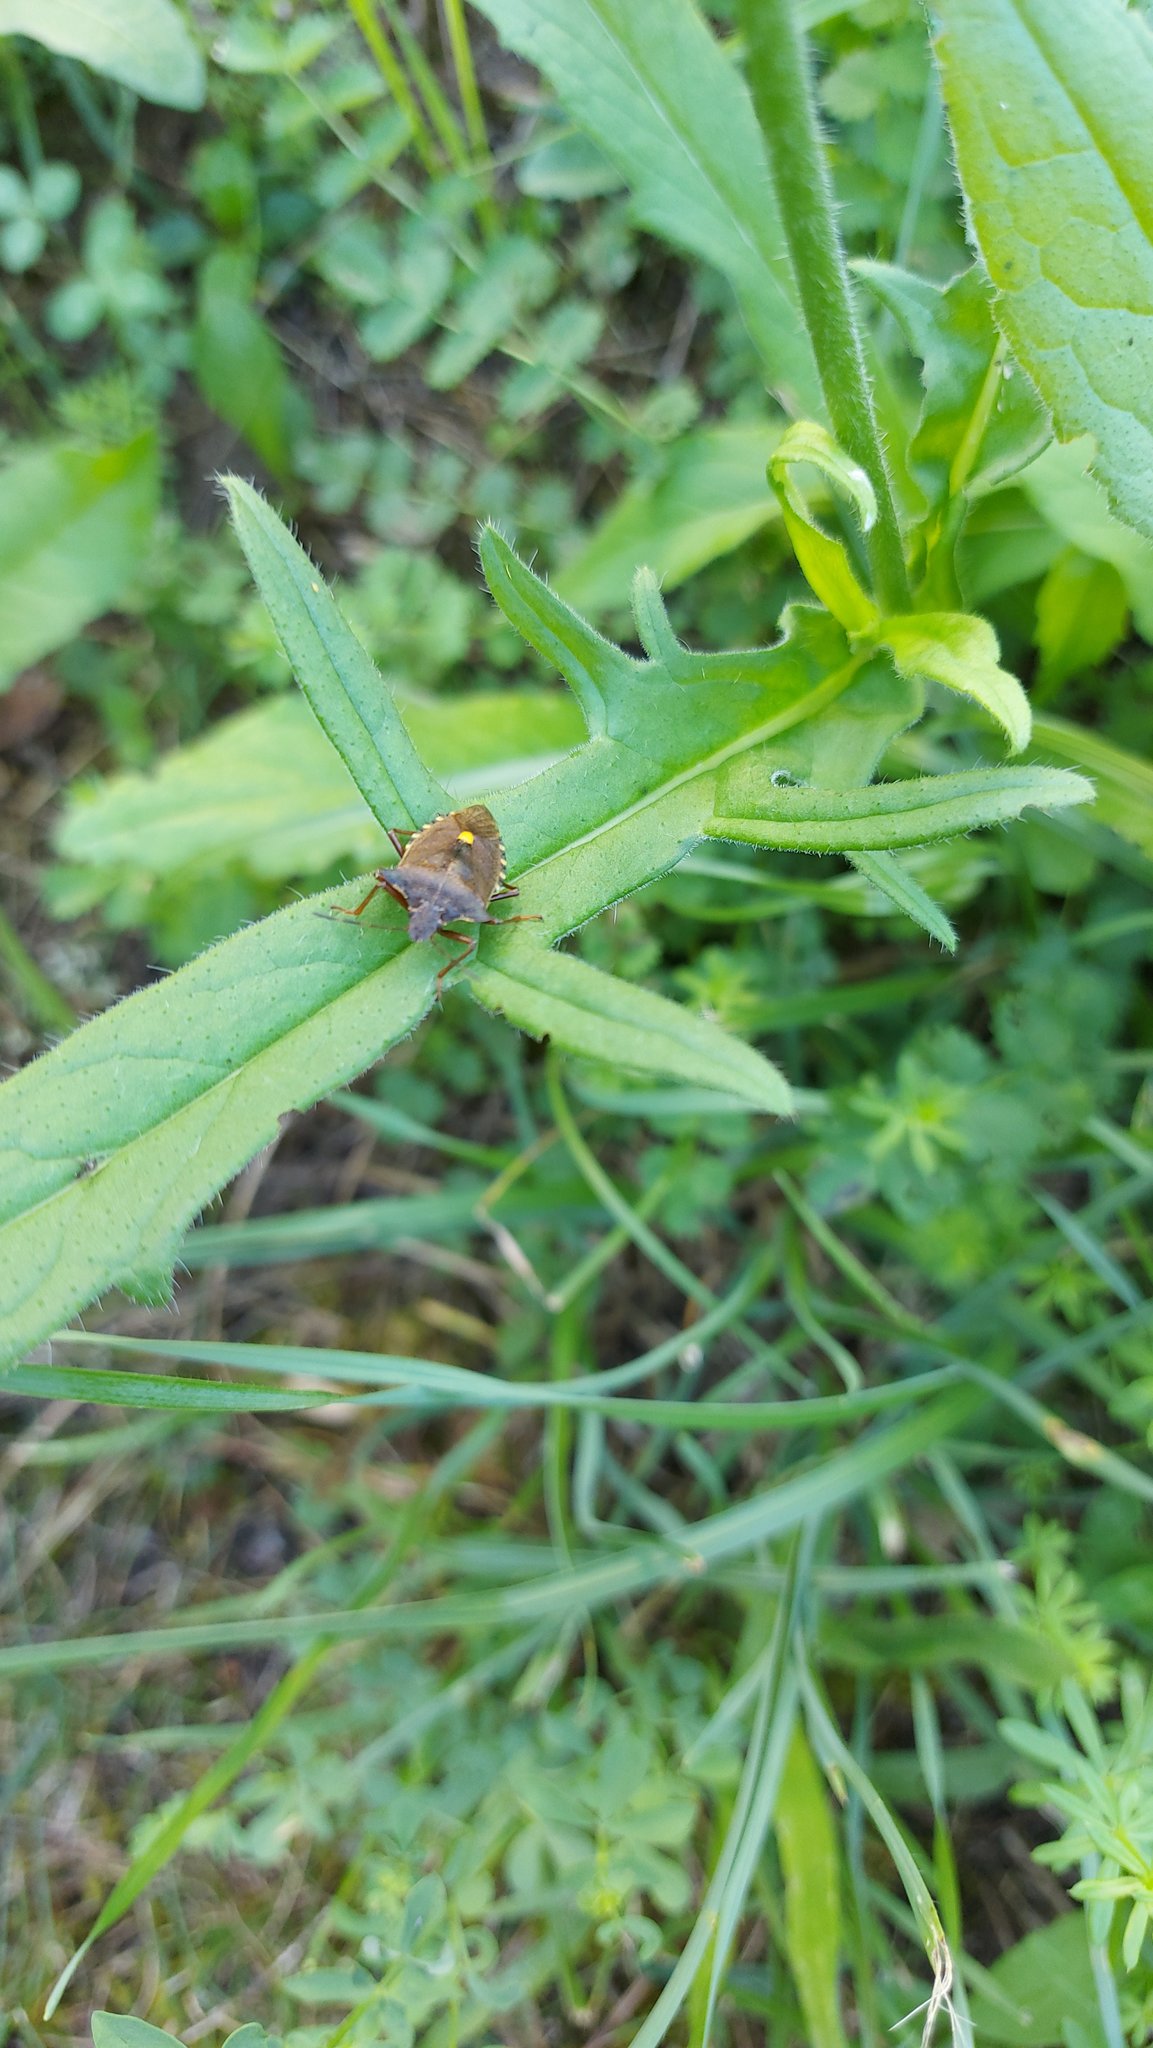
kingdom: Animalia
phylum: Arthropoda
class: Insecta
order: Hemiptera
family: Pentatomidae
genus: Pentatoma
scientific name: Pentatoma rufipes
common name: Forest bug
